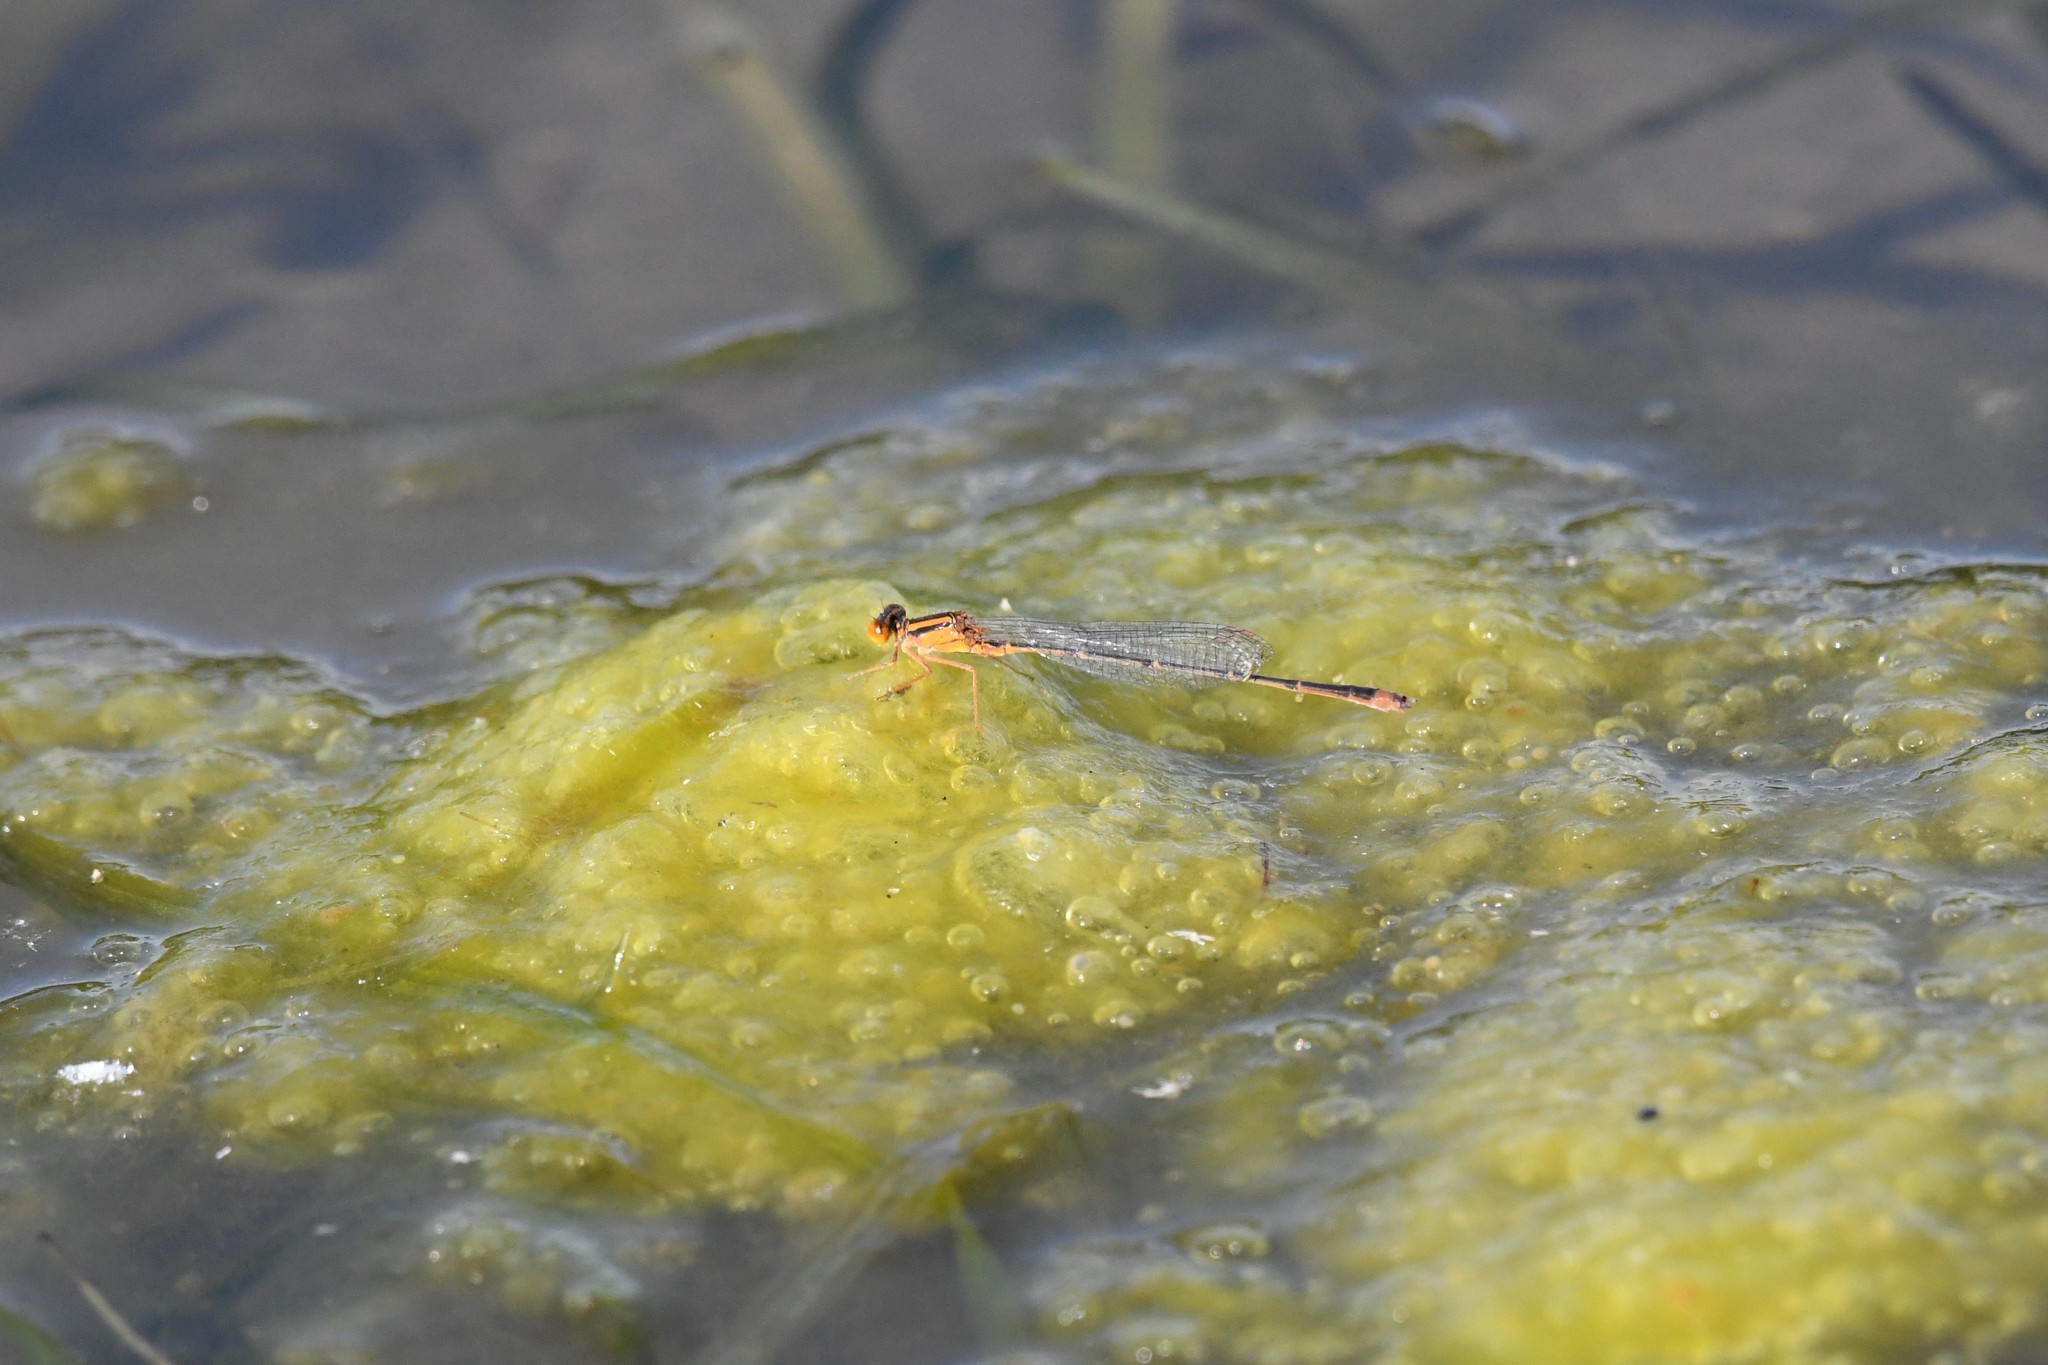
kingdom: Animalia
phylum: Arthropoda
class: Insecta
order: Odonata
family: Coenagrionidae
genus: Enallagma
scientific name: Enallagma signatum
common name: Orange bluet
